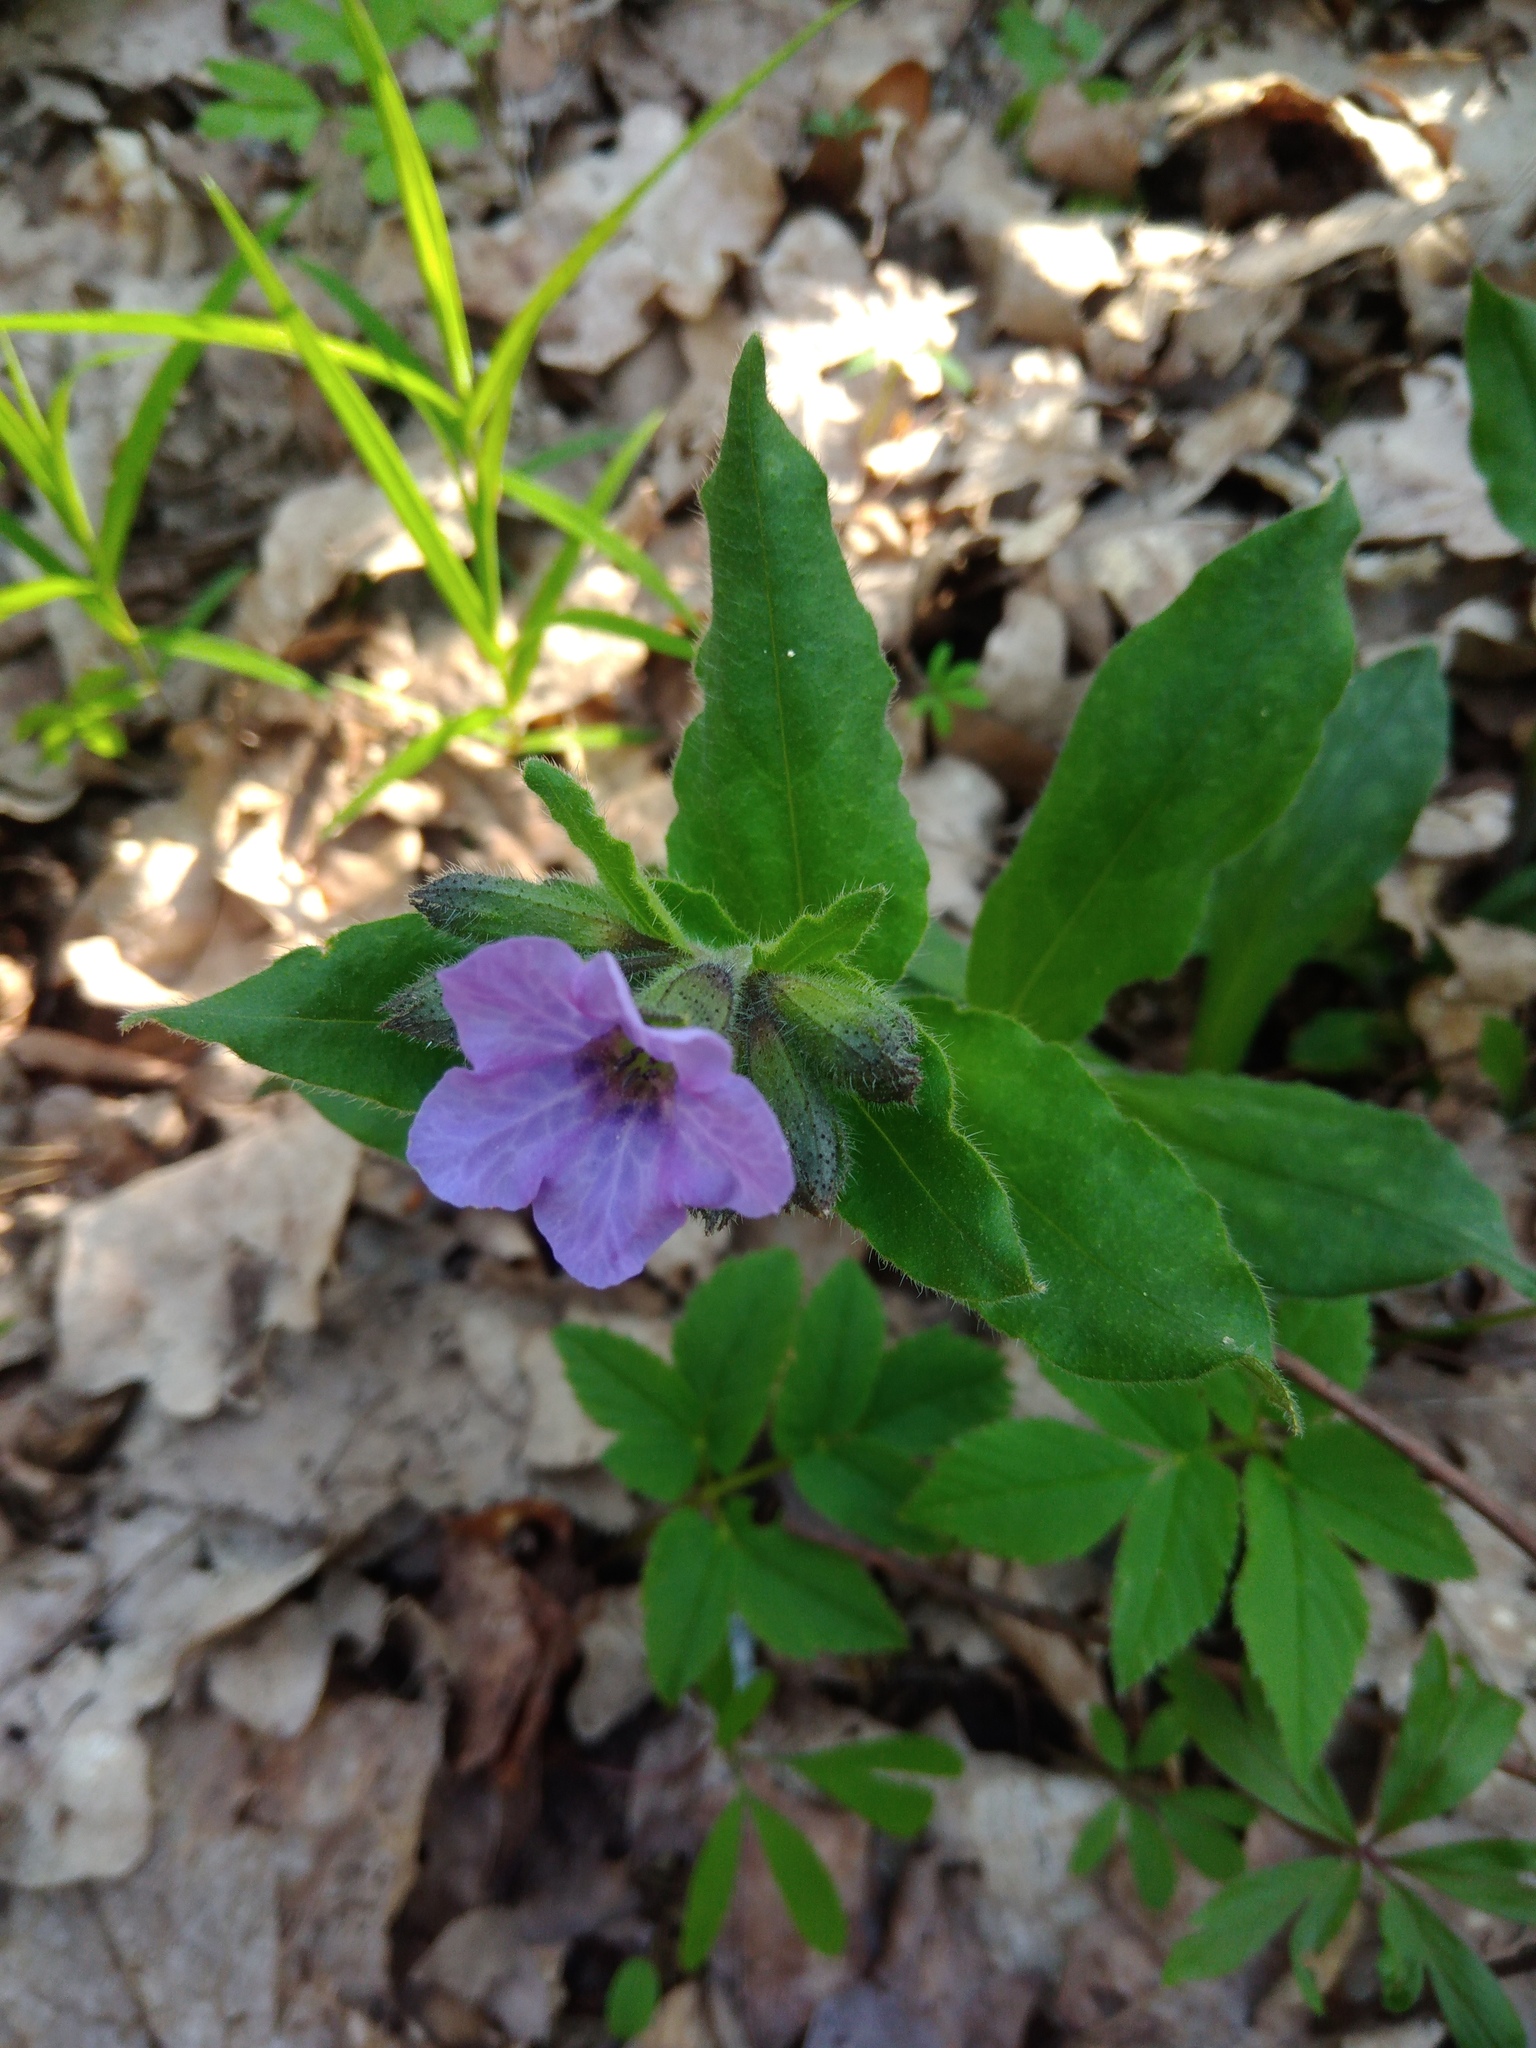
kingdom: Plantae
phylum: Tracheophyta
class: Magnoliopsida
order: Boraginales
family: Boraginaceae
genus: Pulmonaria
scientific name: Pulmonaria obscura
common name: Suffolk lungwort
